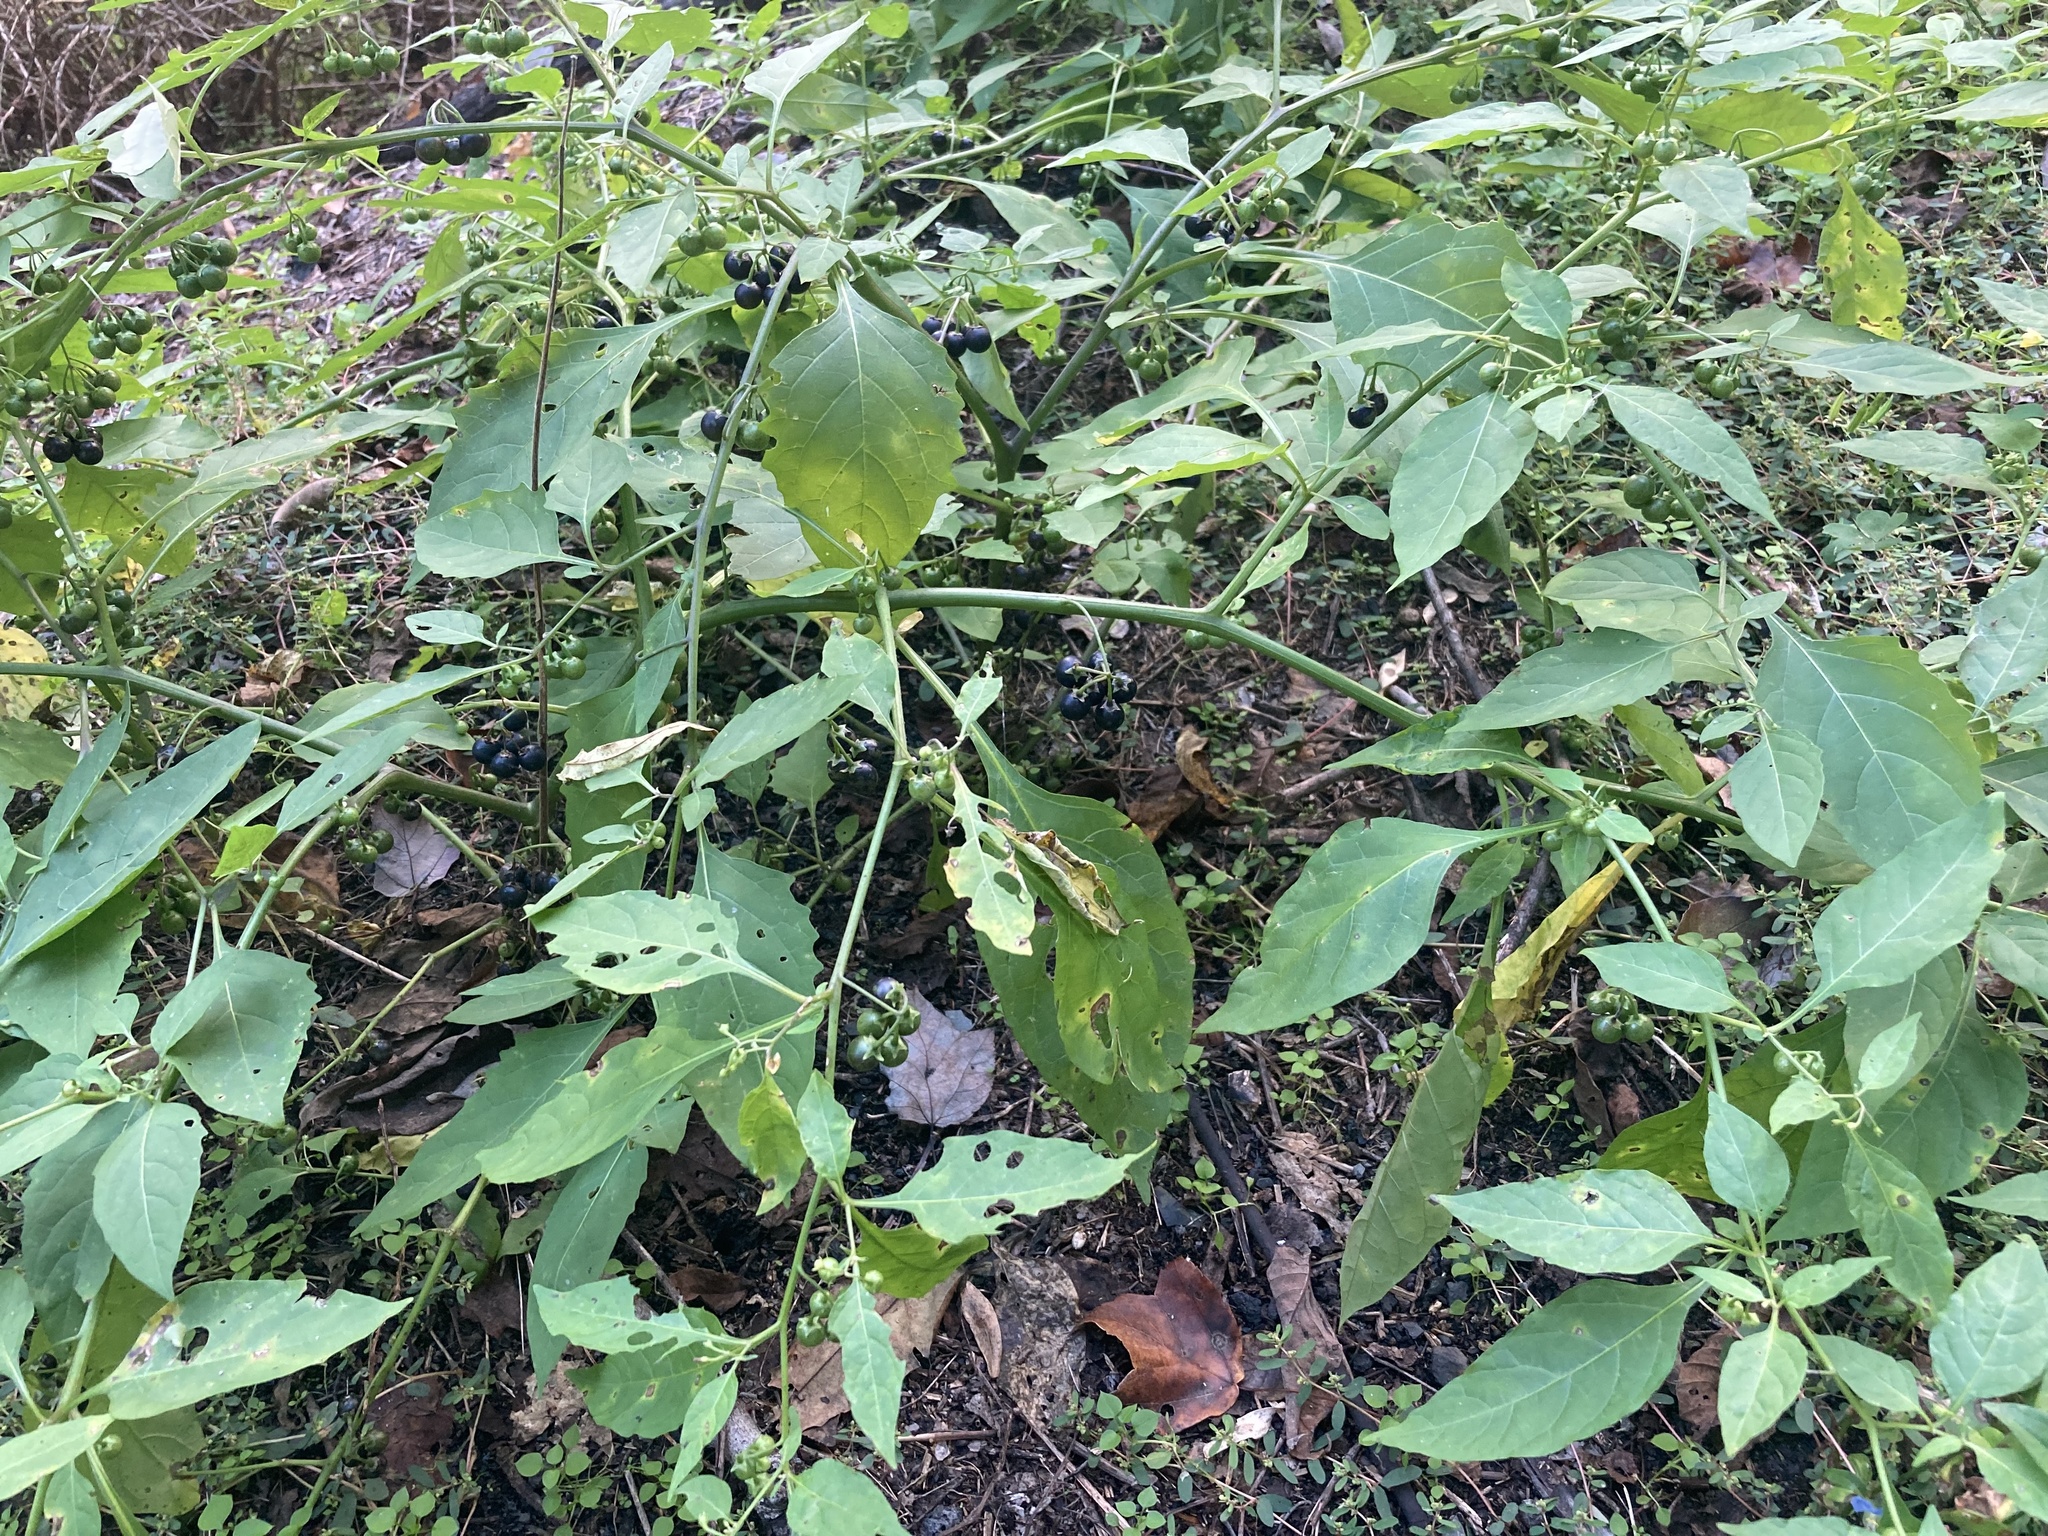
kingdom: Plantae
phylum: Tracheophyta
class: Magnoliopsida
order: Solanales
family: Solanaceae
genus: Solanum
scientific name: Solanum emulans
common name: Eastern black nightshade
